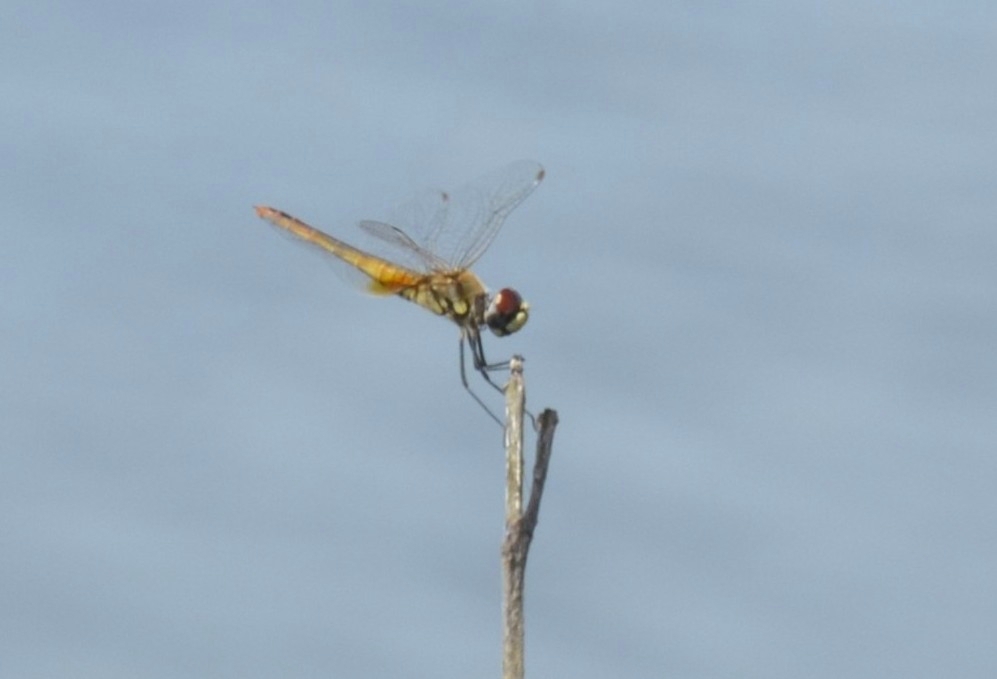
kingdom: Animalia
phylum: Arthropoda
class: Insecta
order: Odonata
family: Libellulidae
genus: Macrodiplax
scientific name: Macrodiplax cora
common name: Coastal glider
